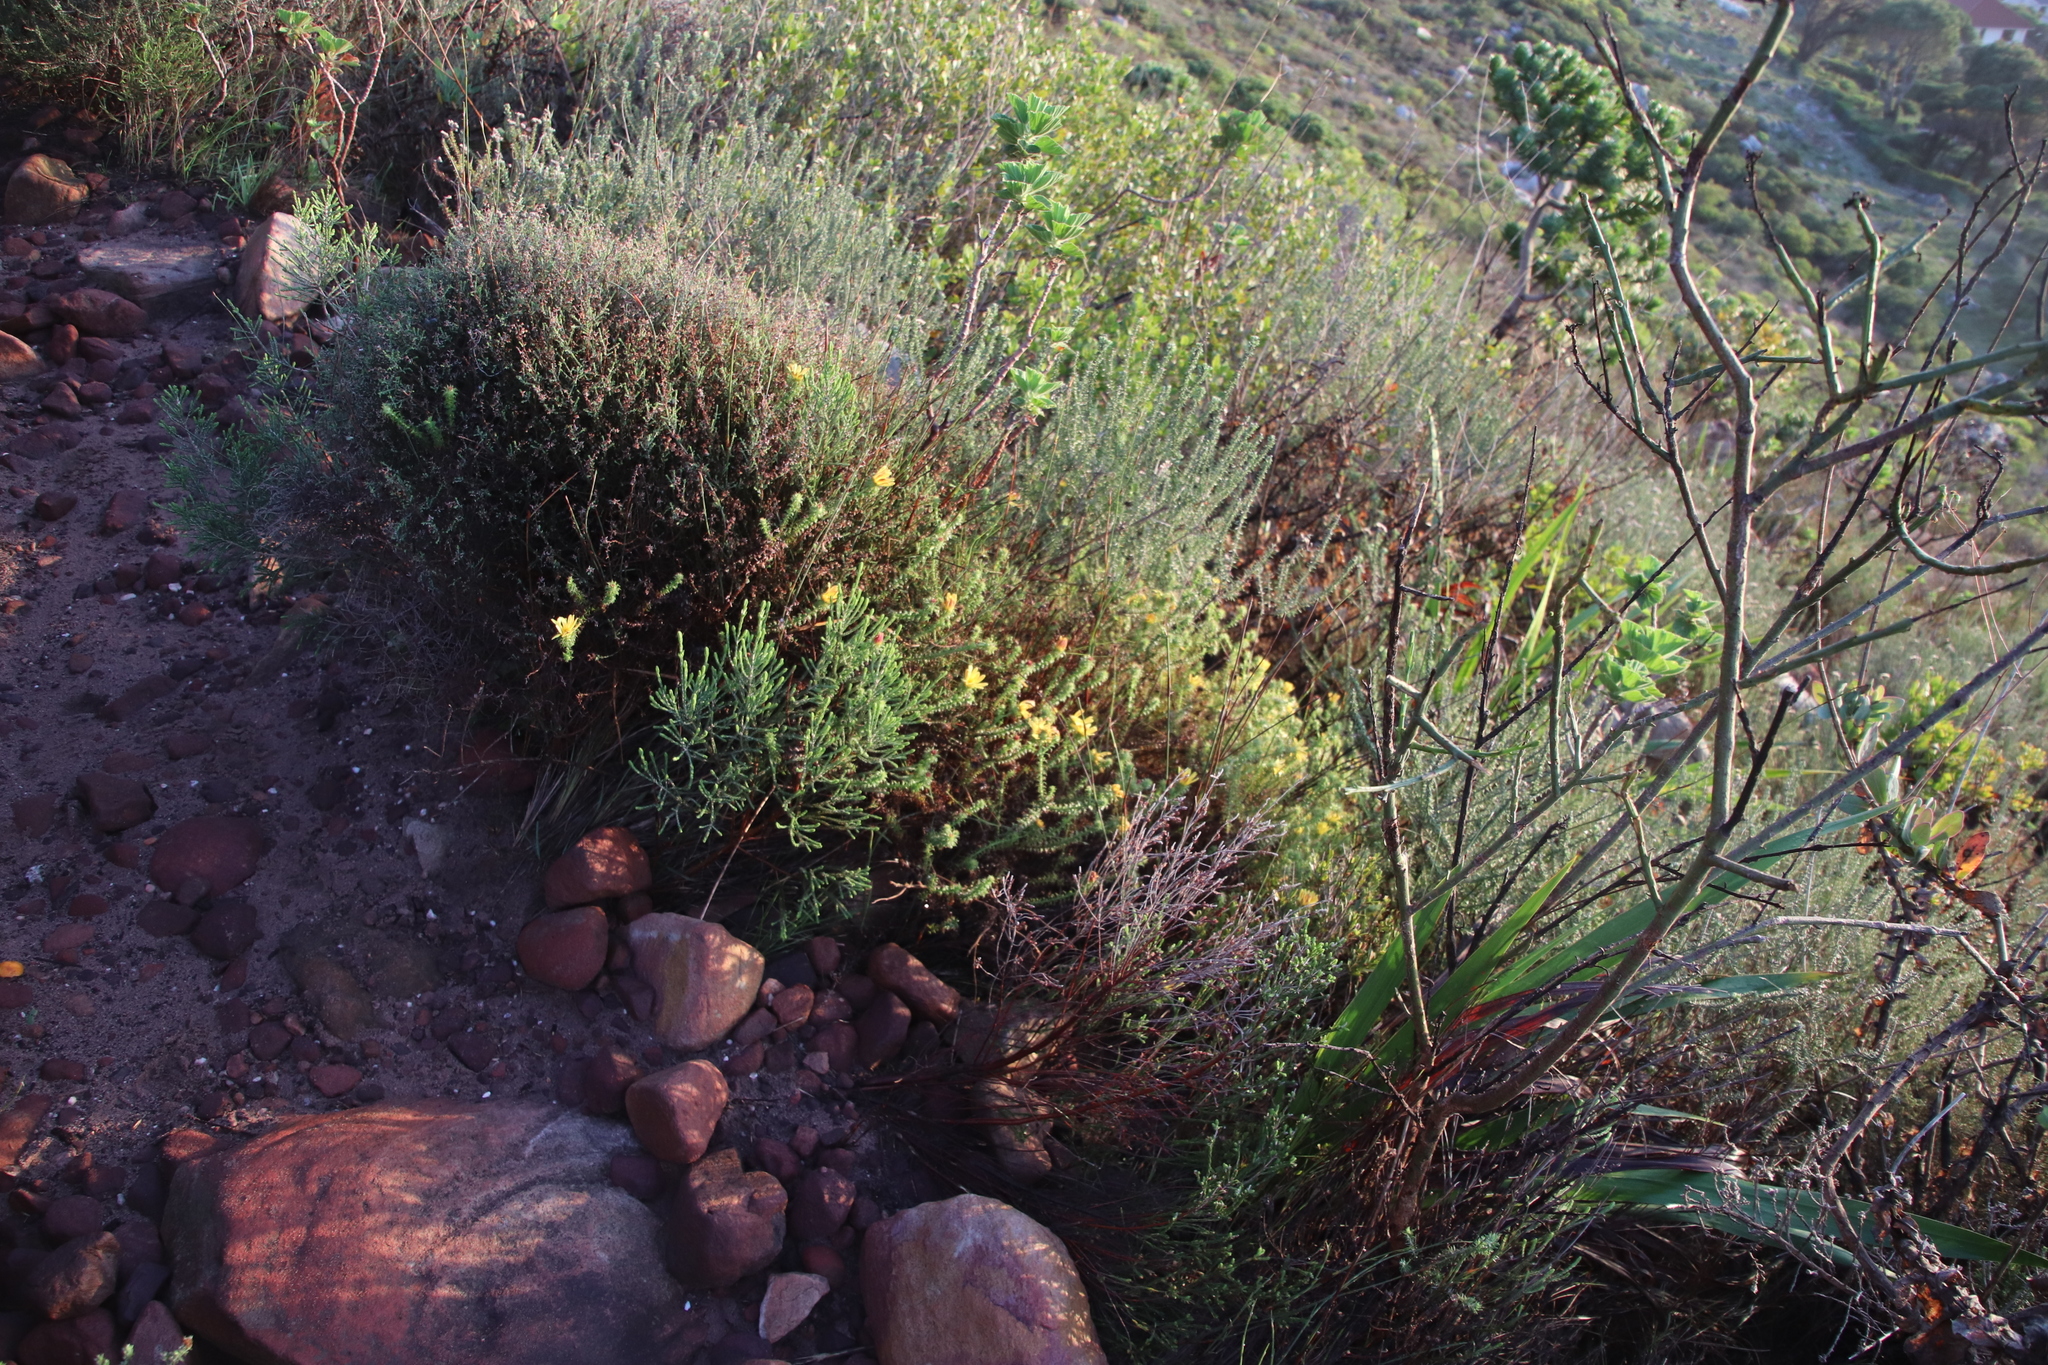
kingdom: Plantae
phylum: Tracheophyta
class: Magnoliopsida
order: Asterales
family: Asteraceae
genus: Cullumia
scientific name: Cullumia setosa
